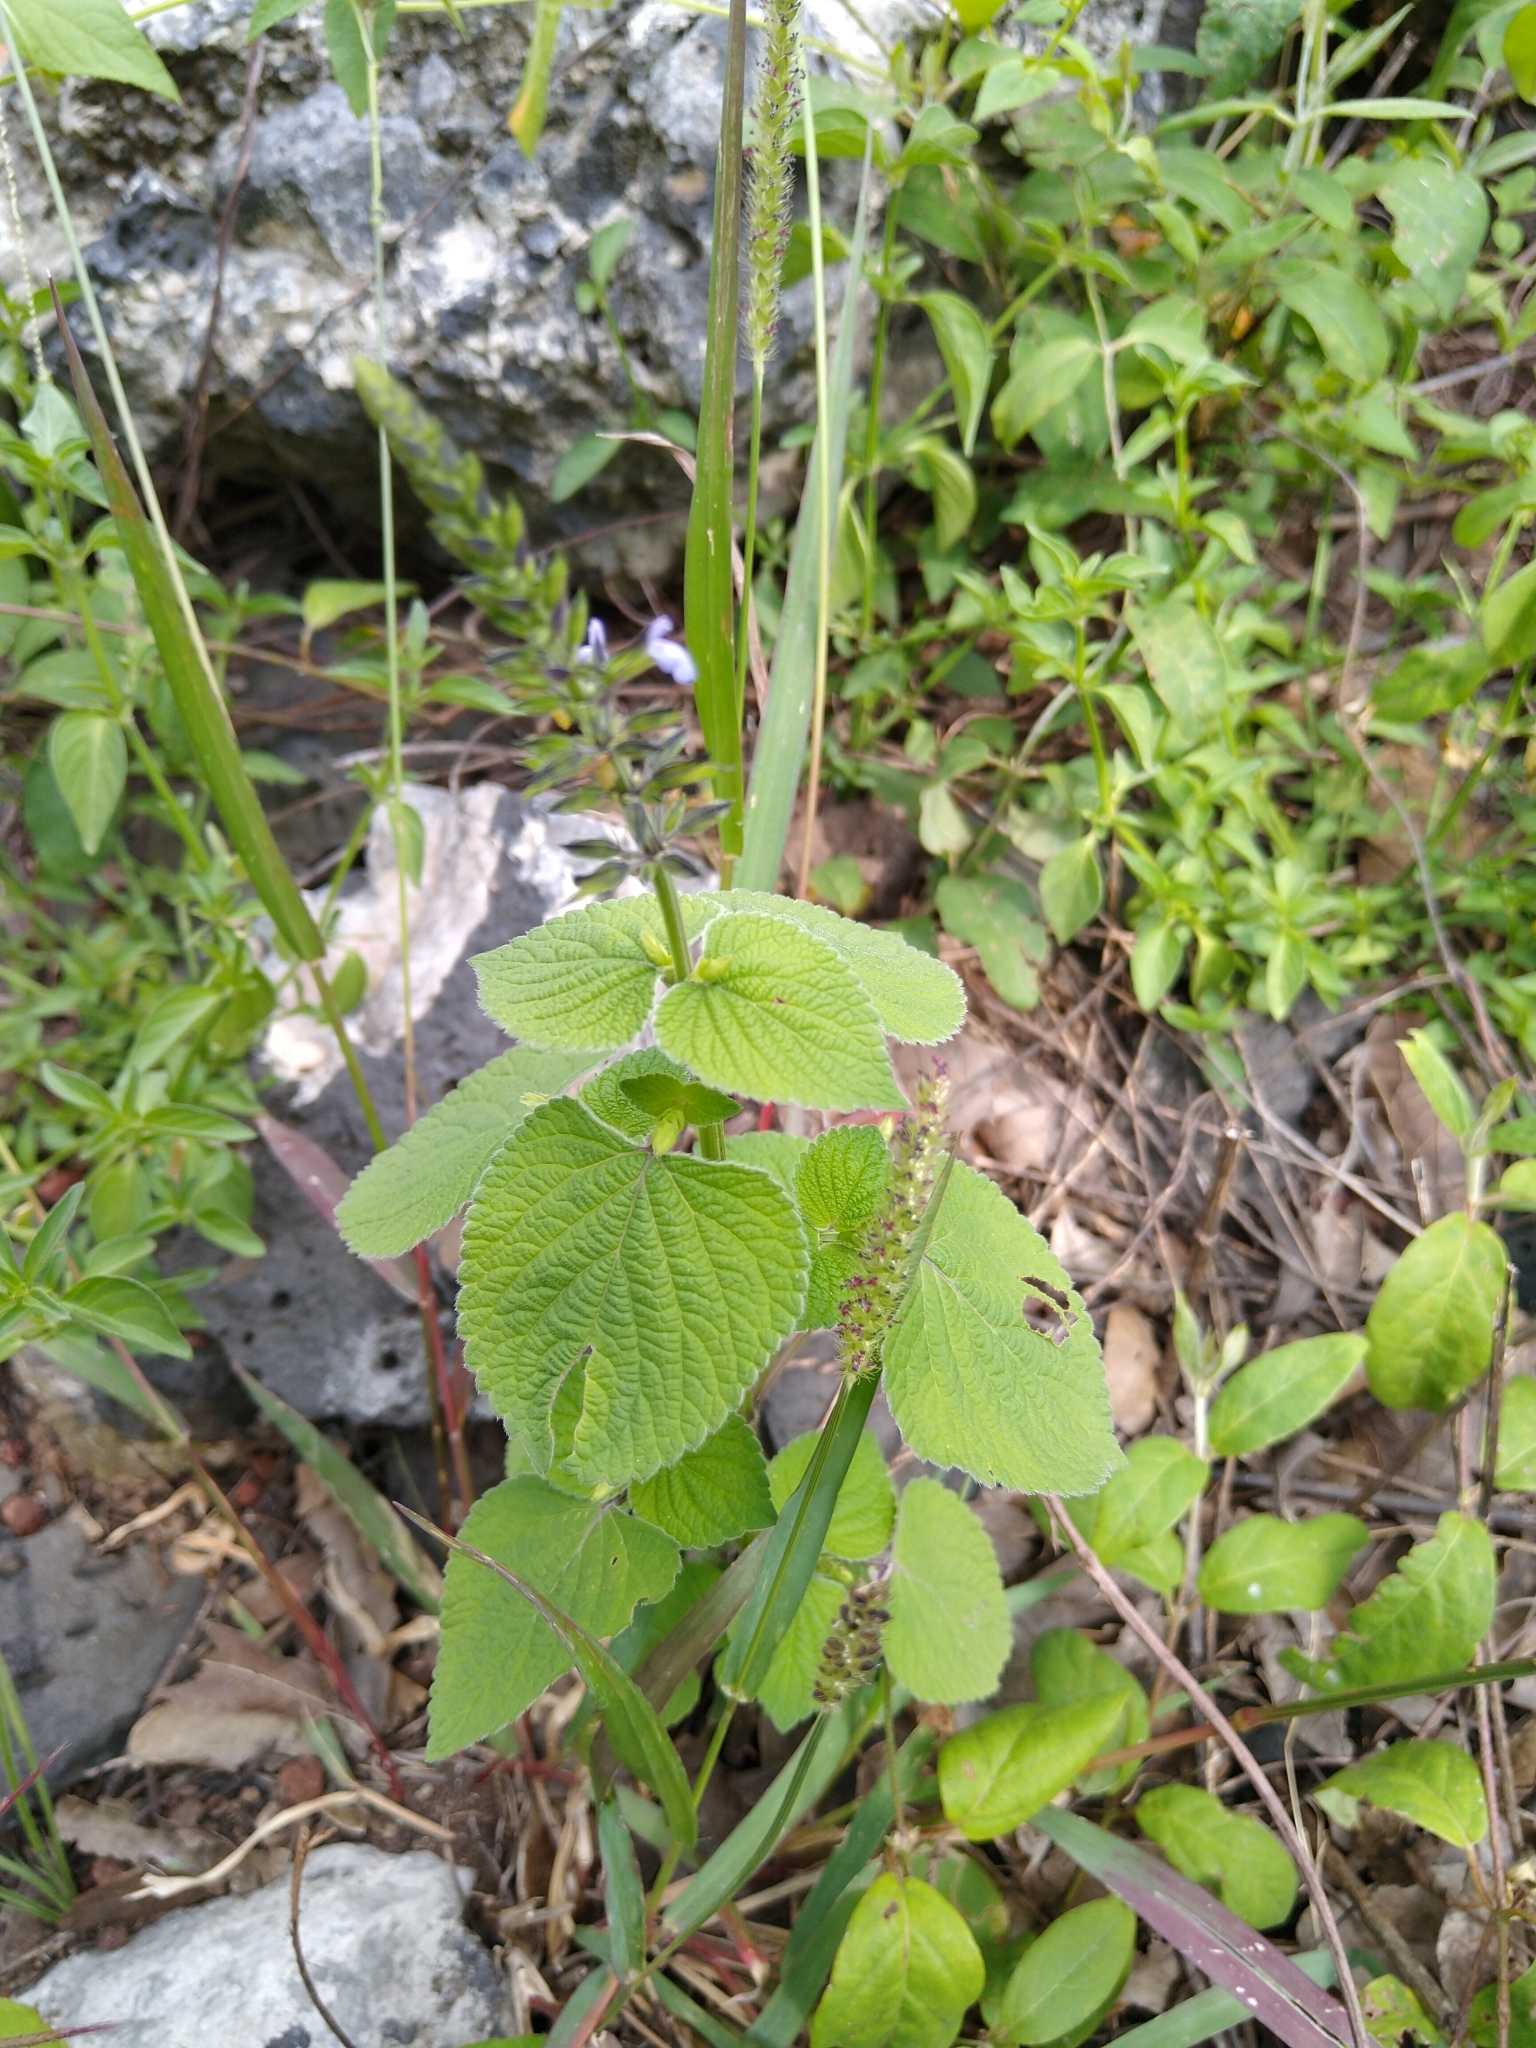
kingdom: Plantae
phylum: Tracheophyta
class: Magnoliopsida
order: Lamiales
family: Lamiaceae
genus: Salvia
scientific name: Salvia tiliifolia
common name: Lindenleaf sage
